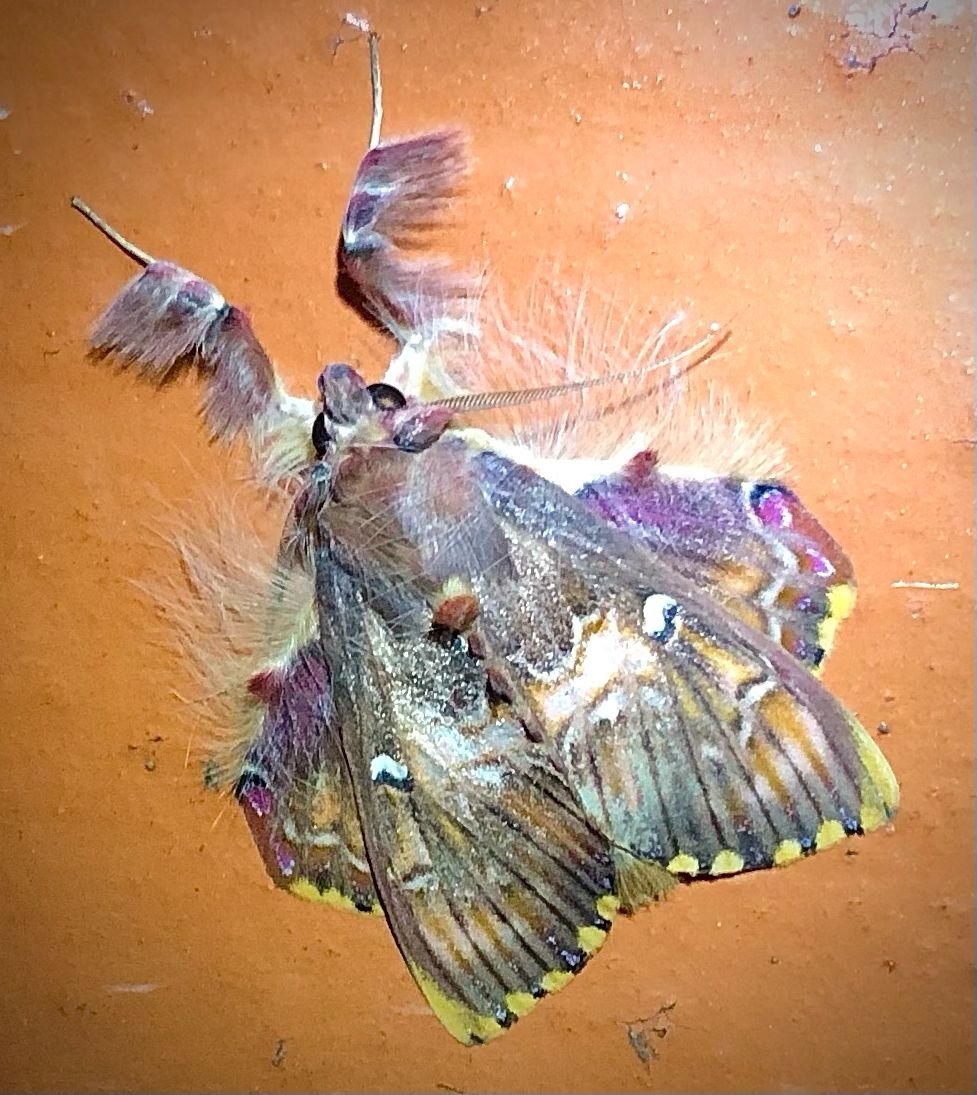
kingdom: Animalia
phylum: Arthropoda
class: Insecta
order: Lepidoptera
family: Erebidae
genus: Sosxetra
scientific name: Sosxetra grata
